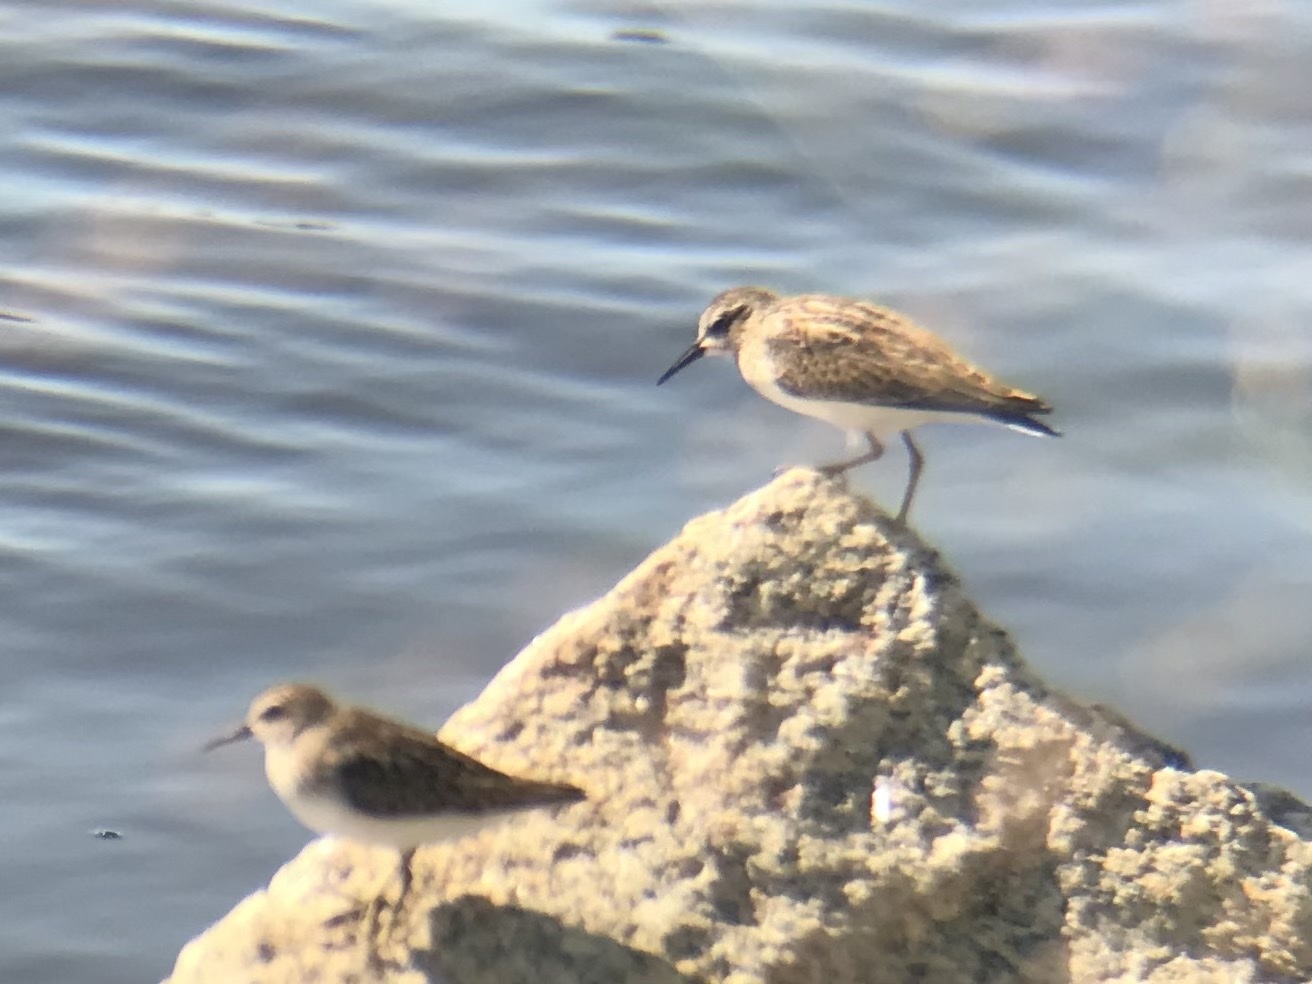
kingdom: Animalia
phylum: Chordata
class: Aves
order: Charadriiformes
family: Scolopacidae
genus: Calidris
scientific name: Calidris minutilla
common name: Least sandpiper
